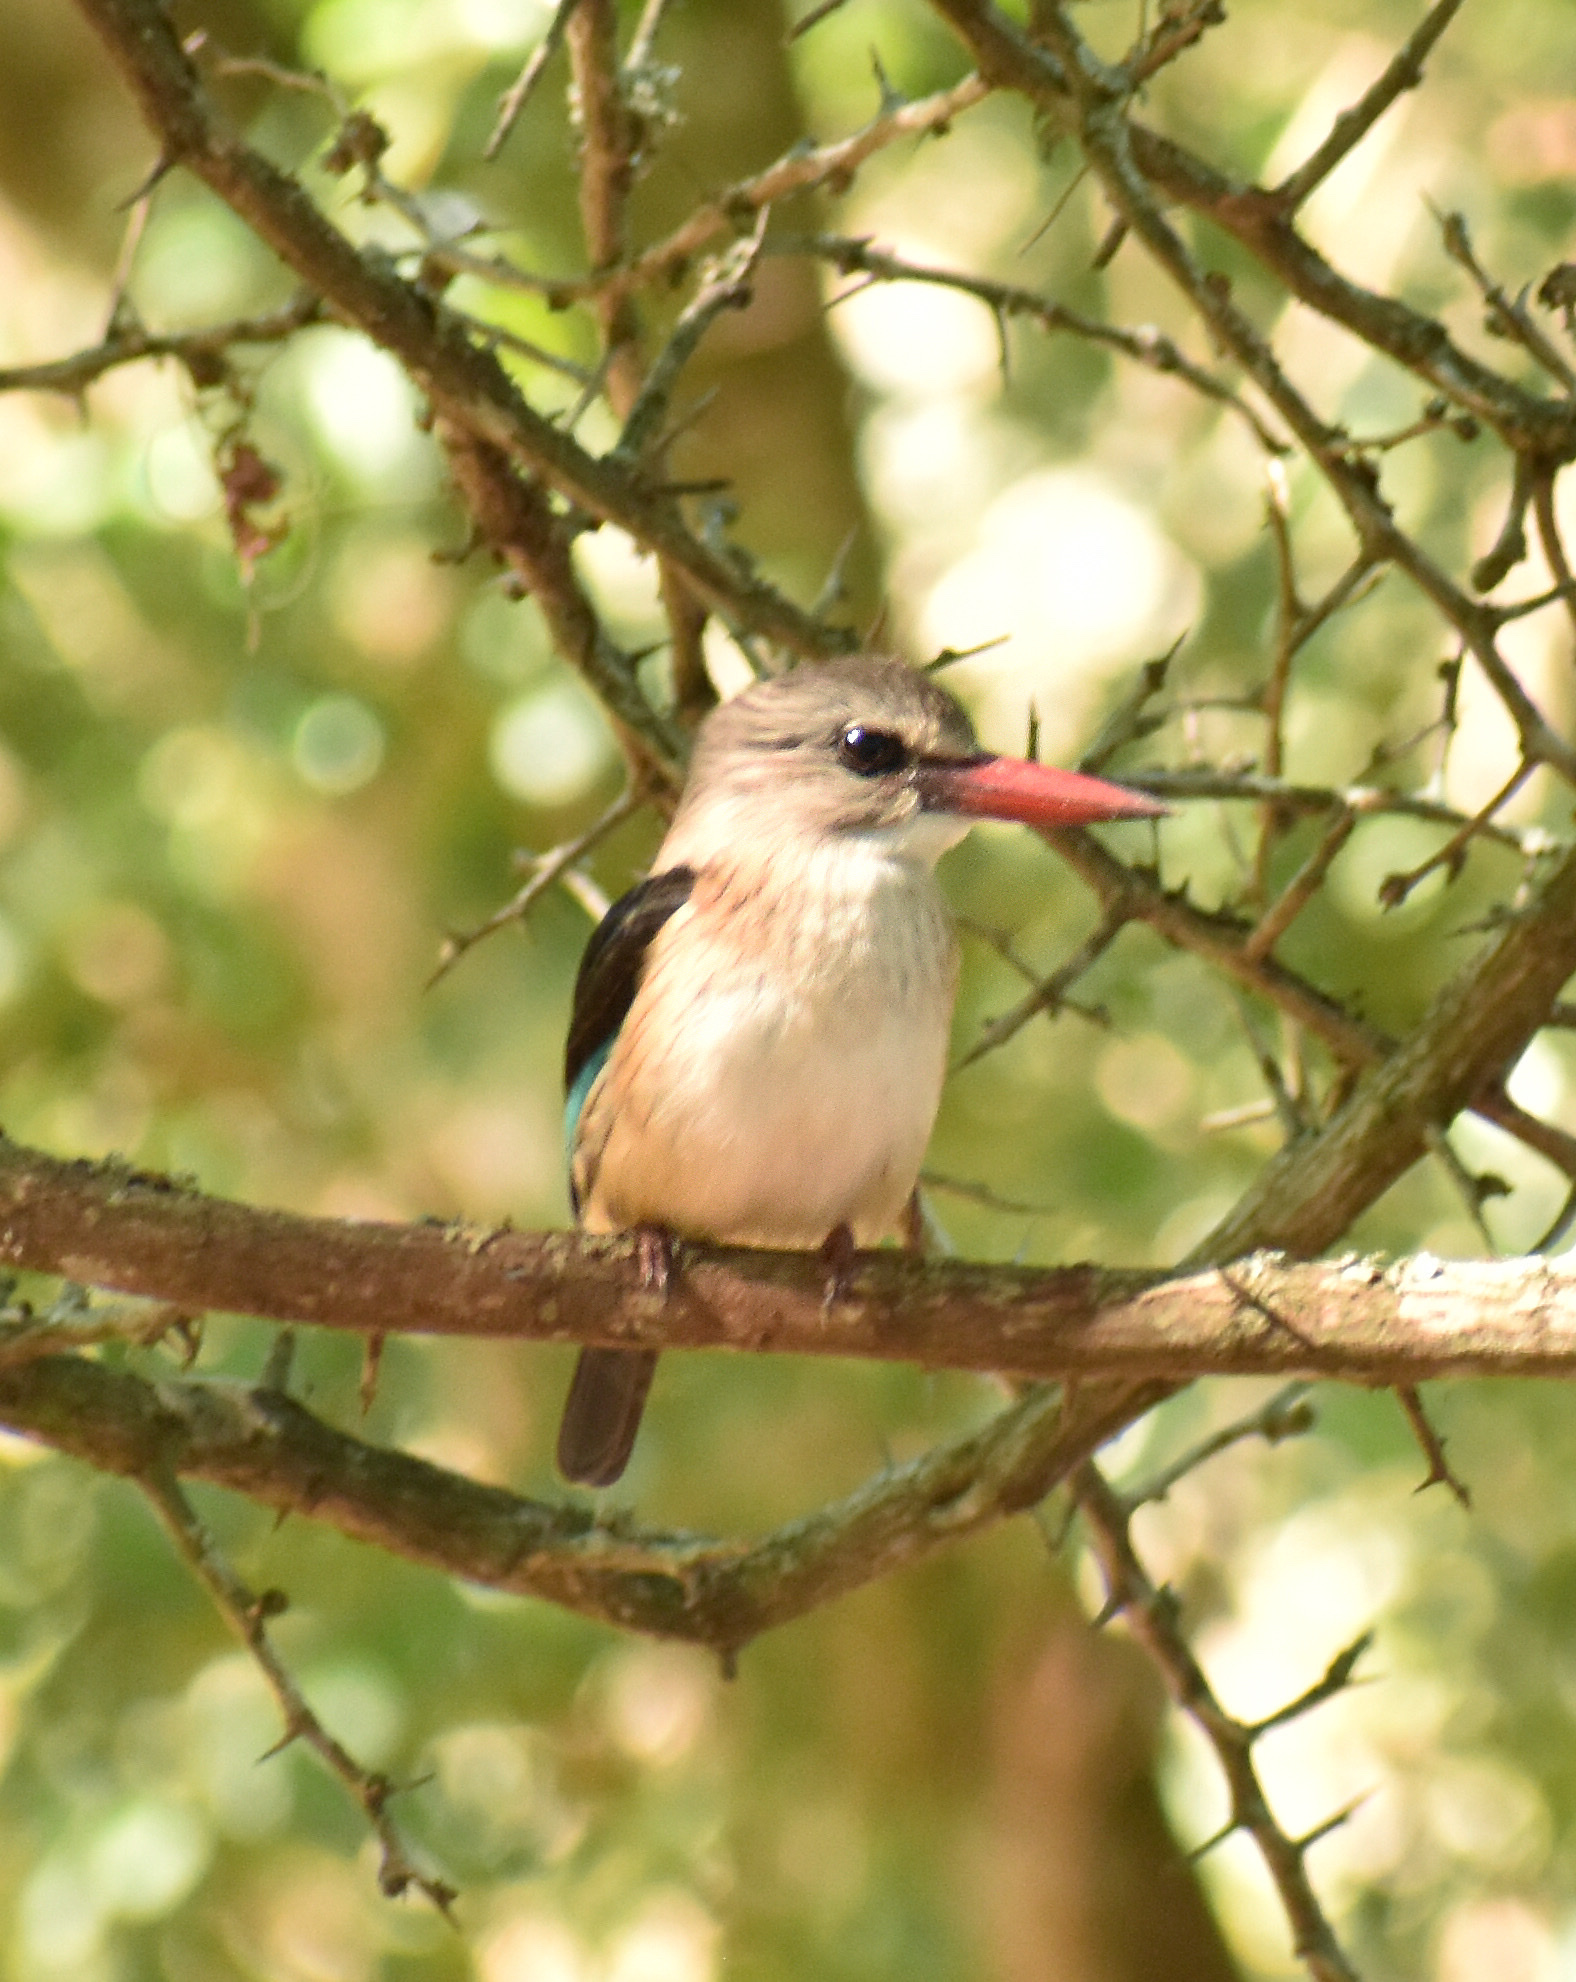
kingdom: Animalia
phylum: Chordata
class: Aves
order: Coraciiformes
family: Alcedinidae
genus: Halcyon
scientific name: Halcyon albiventris
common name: Brown-hooded kingfisher
